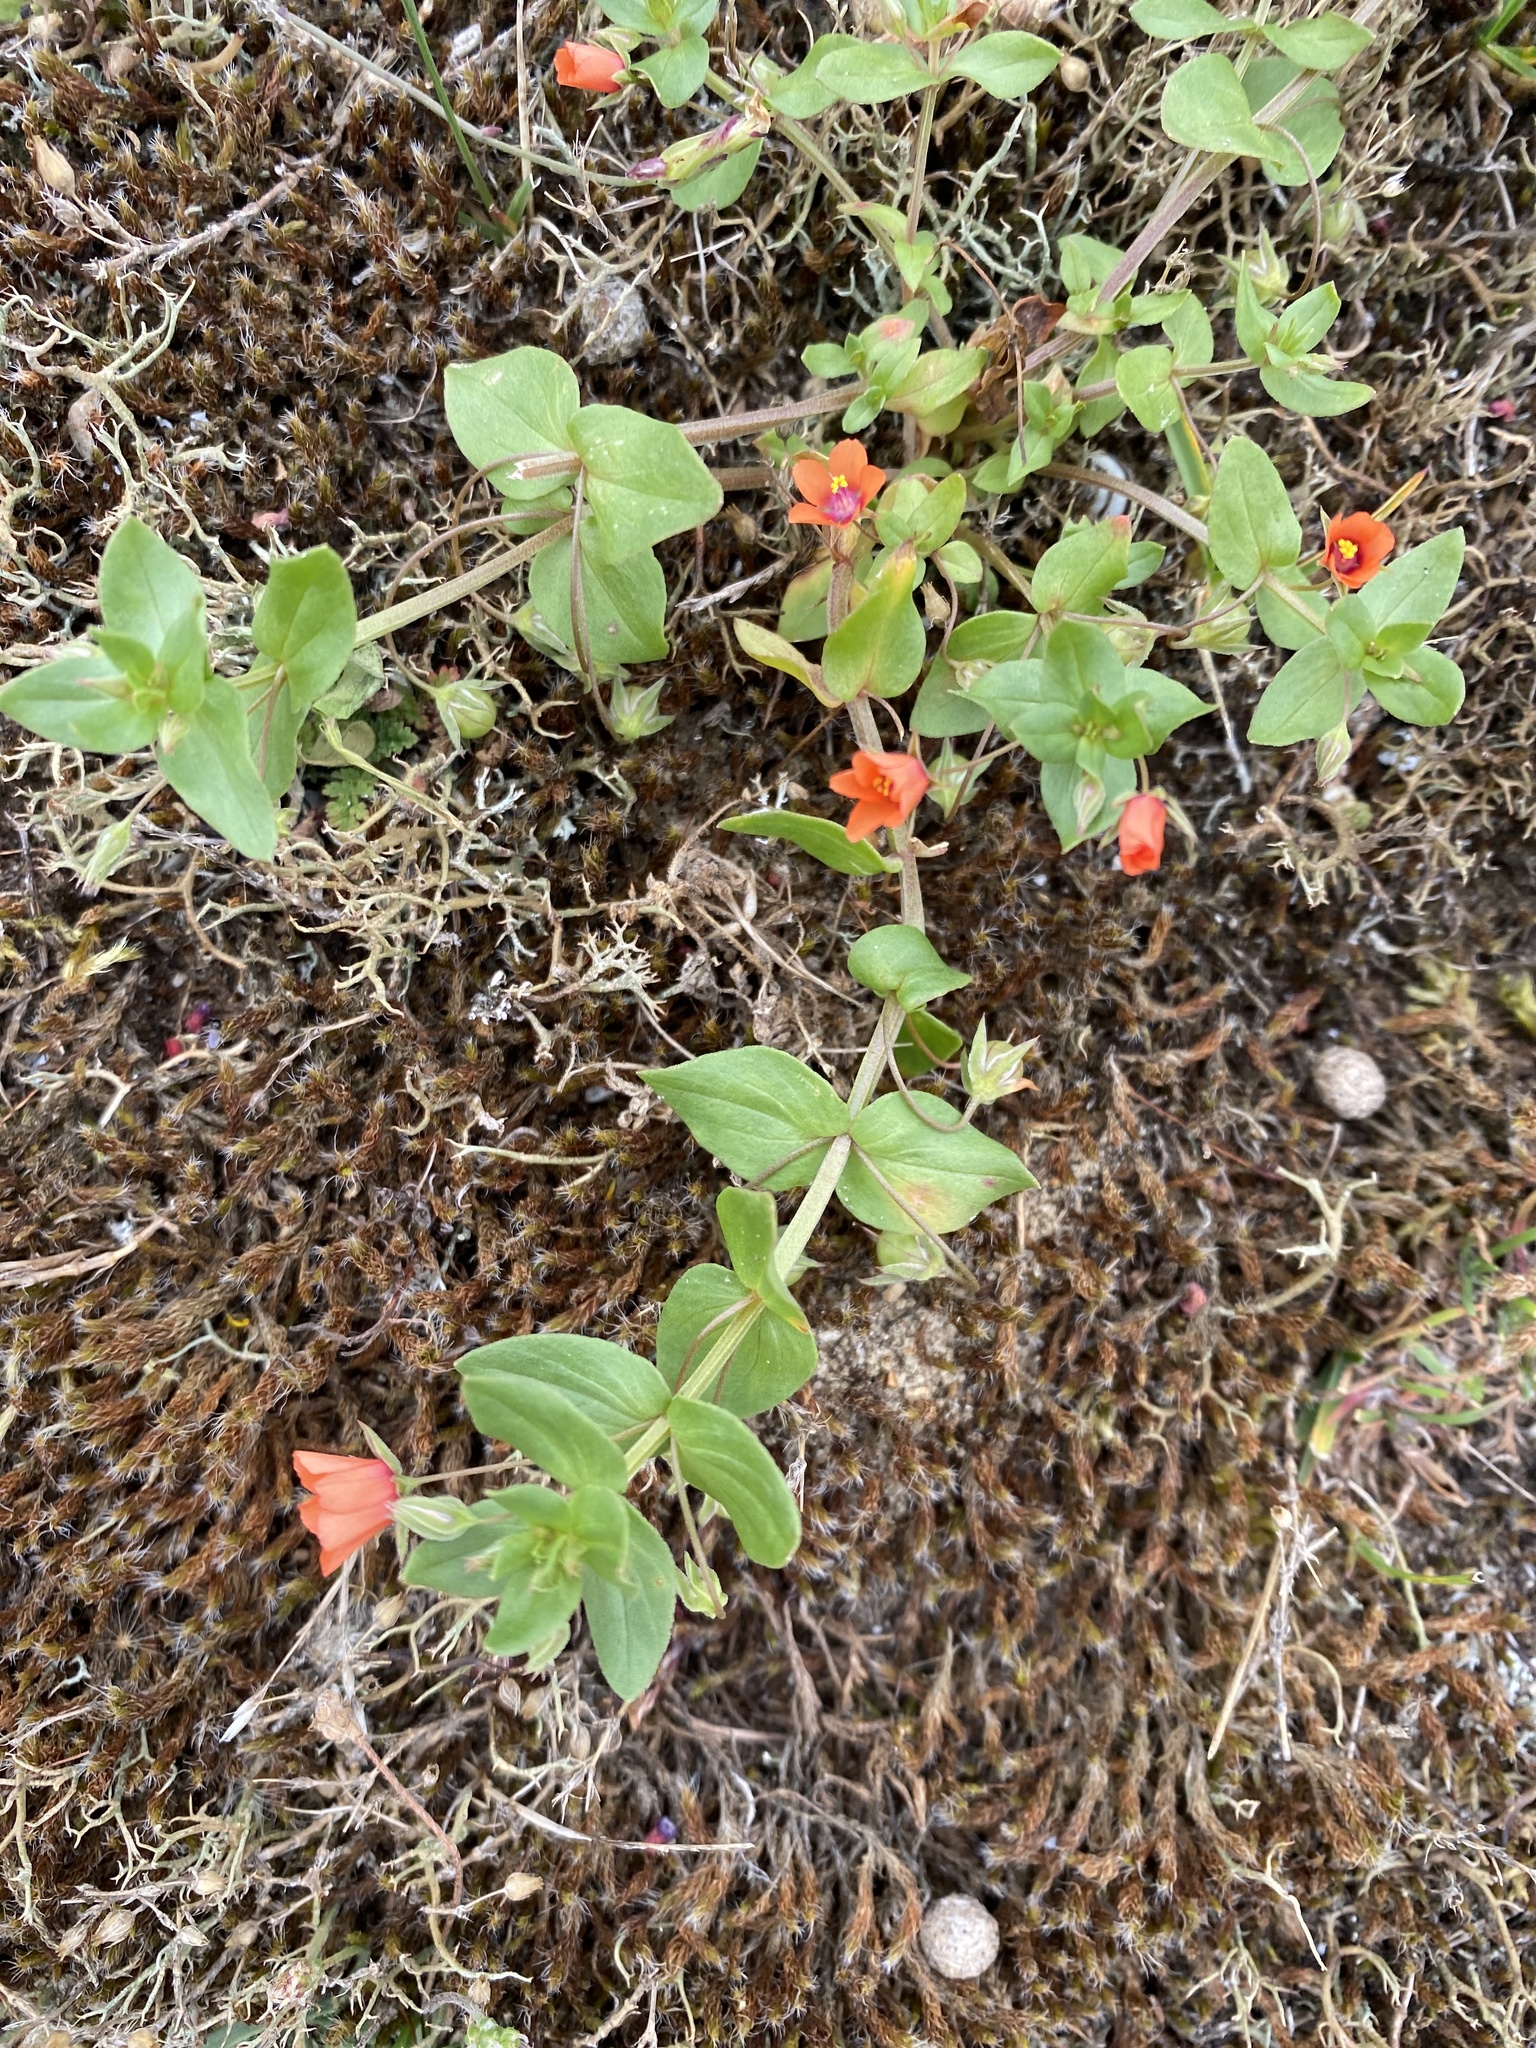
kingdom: Plantae
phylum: Tracheophyta
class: Magnoliopsida
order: Ericales
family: Primulaceae
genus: Lysimachia
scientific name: Lysimachia arvensis
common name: Scarlet pimpernel
